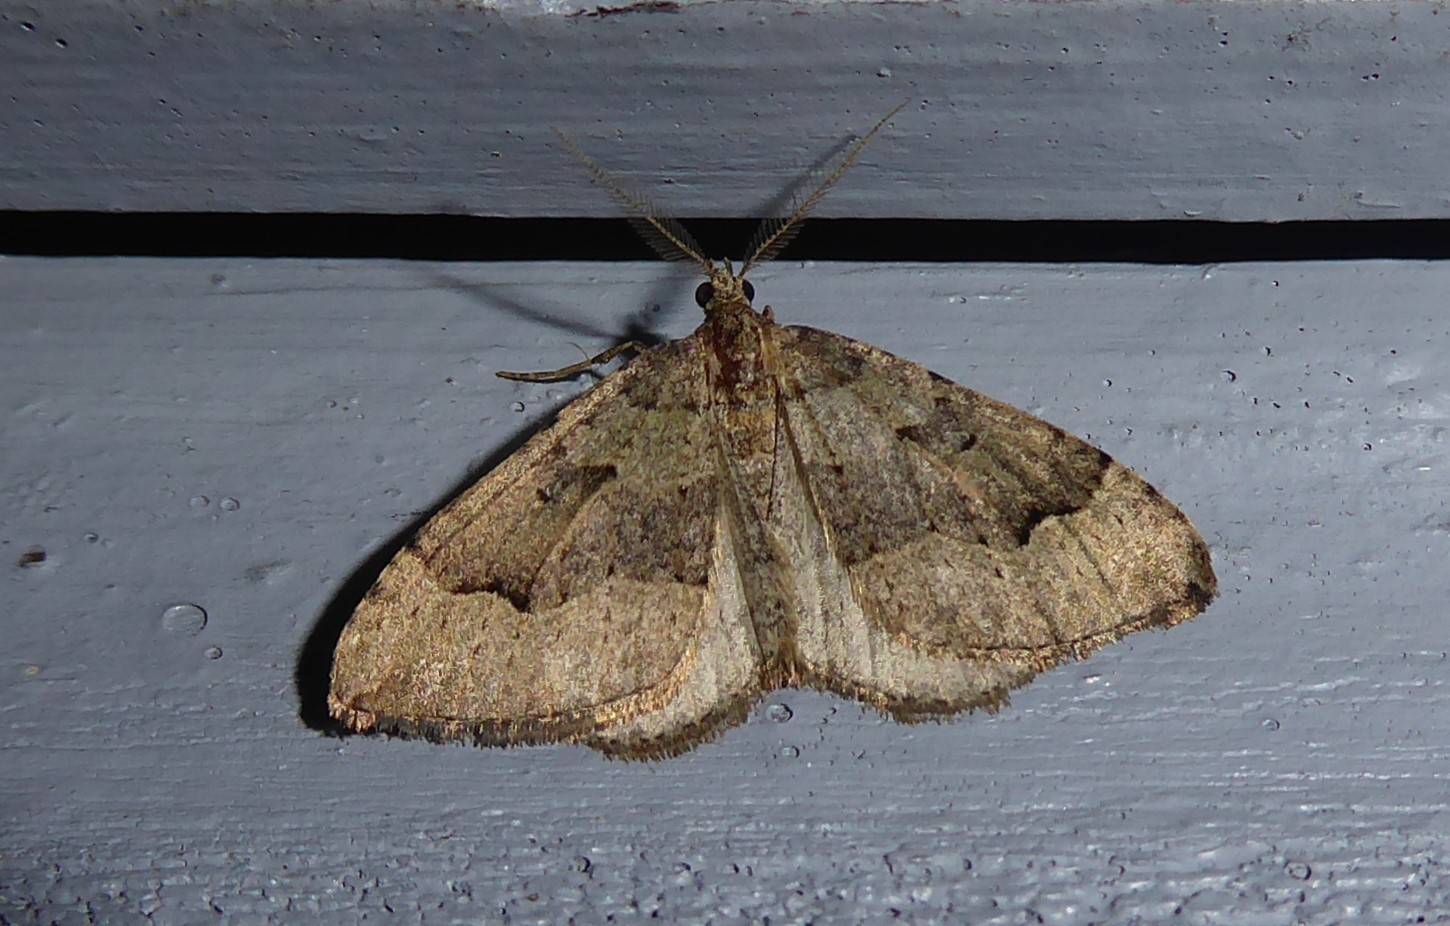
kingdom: Animalia
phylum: Arthropoda
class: Insecta
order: Lepidoptera
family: Geometridae
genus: Epyaxa
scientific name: Epyaxa rosearia
